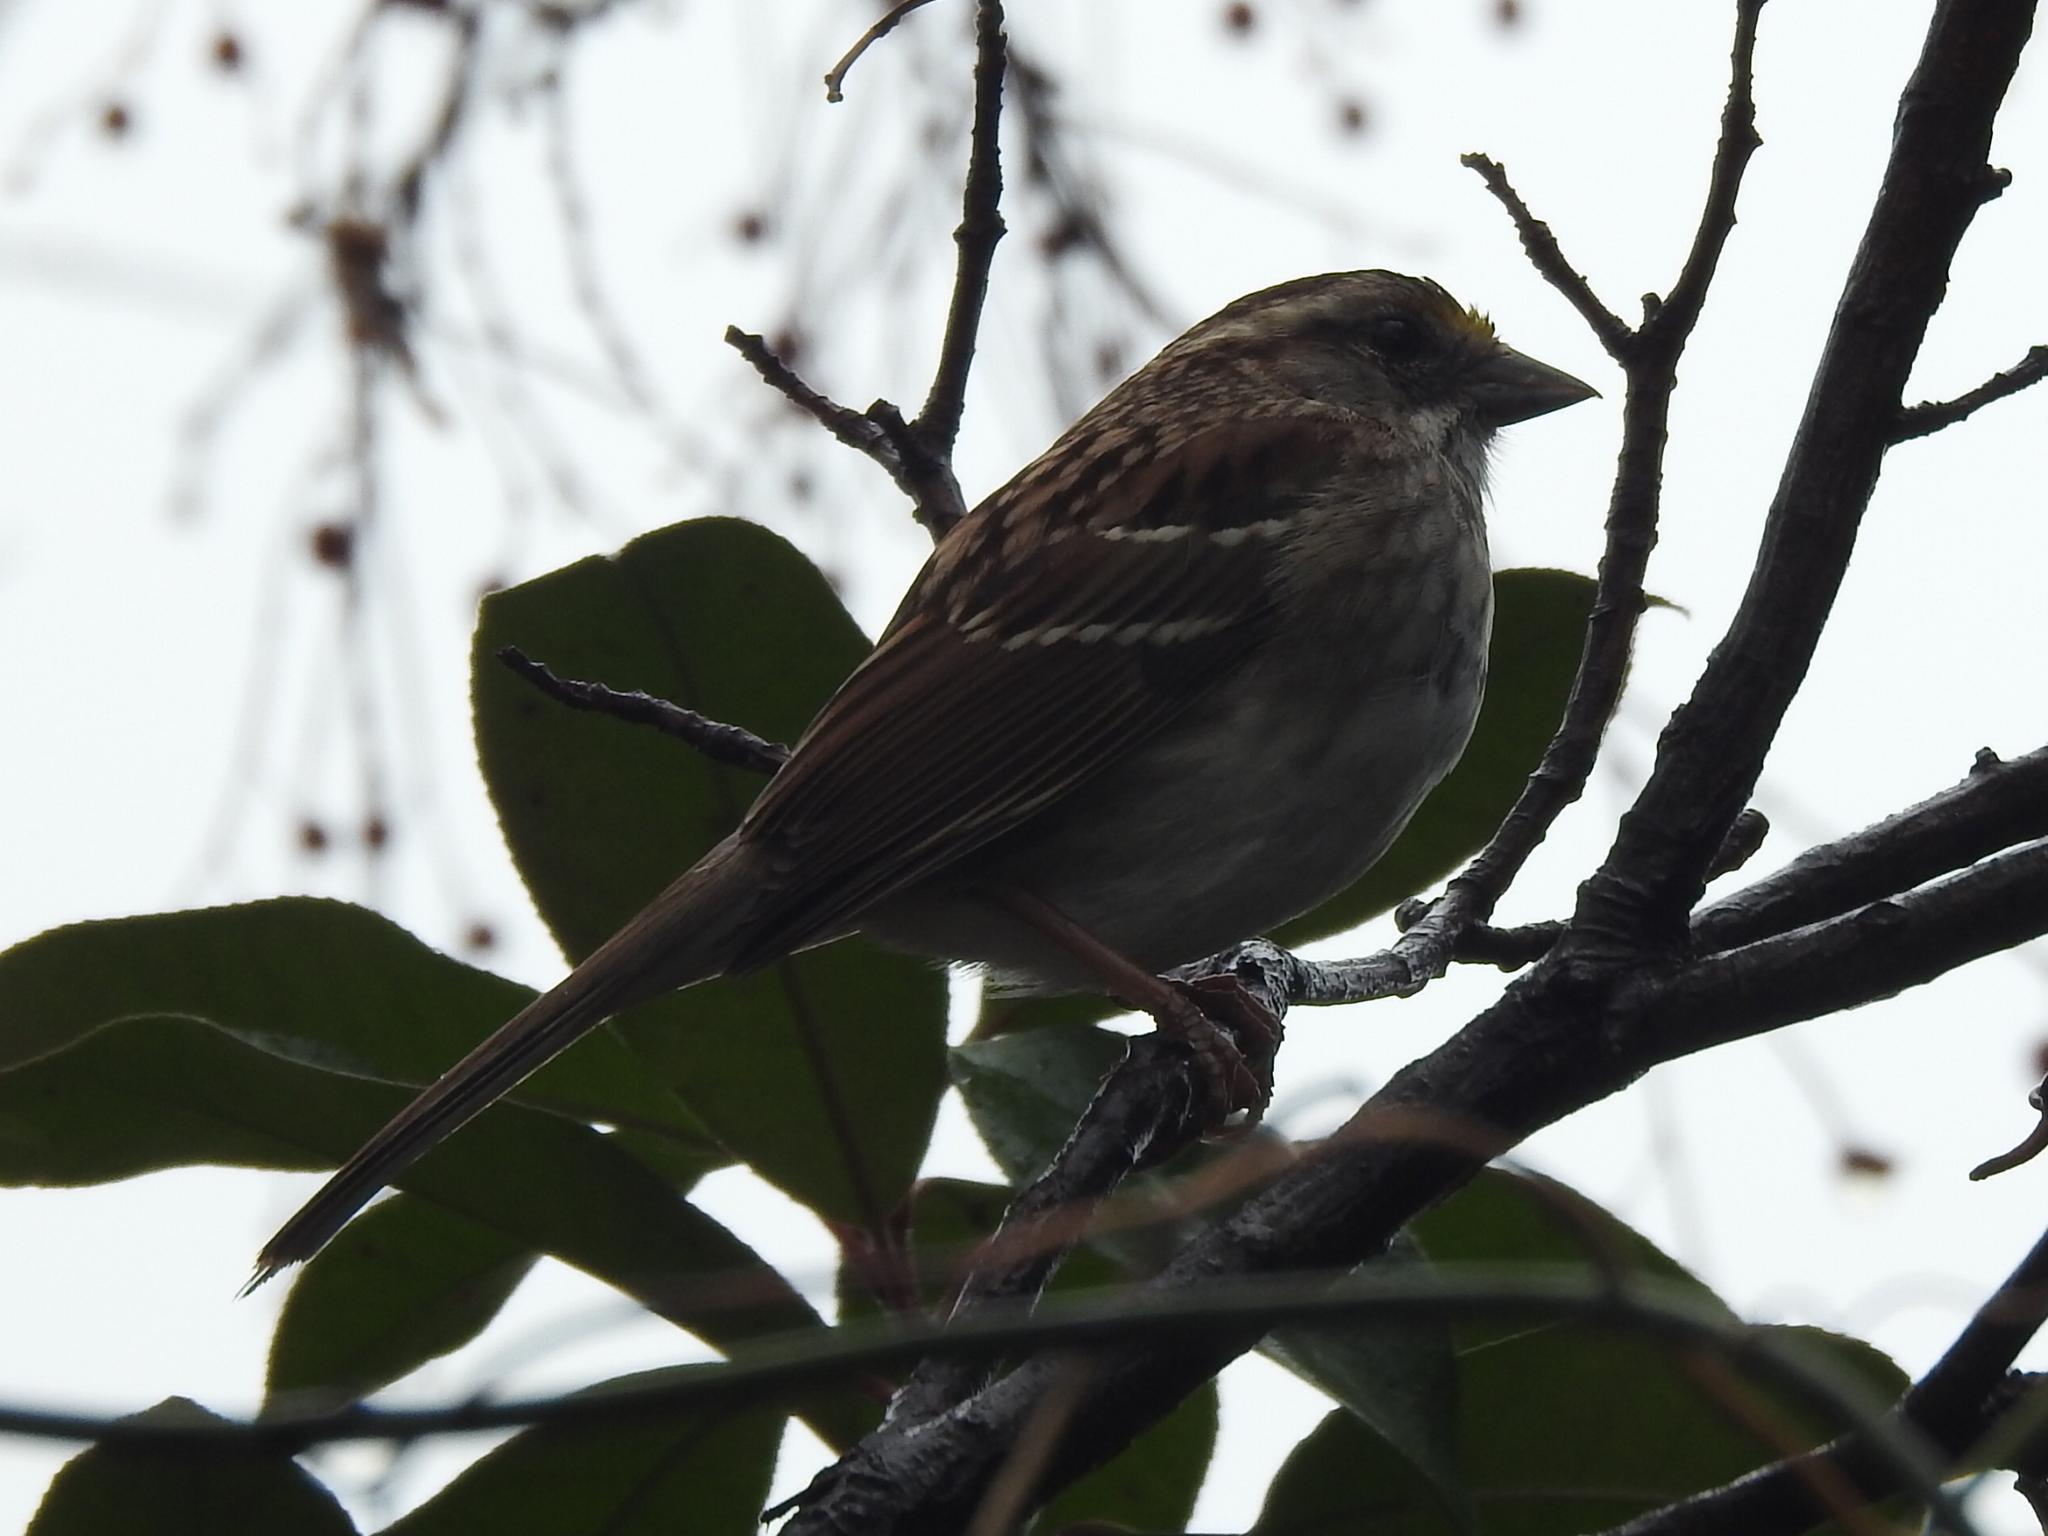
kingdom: Animalia
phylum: Chordata
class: Aves
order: Passeriformes
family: Passerellidae
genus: Zonotrichia
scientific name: Zonotrichia albicollis
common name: White-throated sparrow
